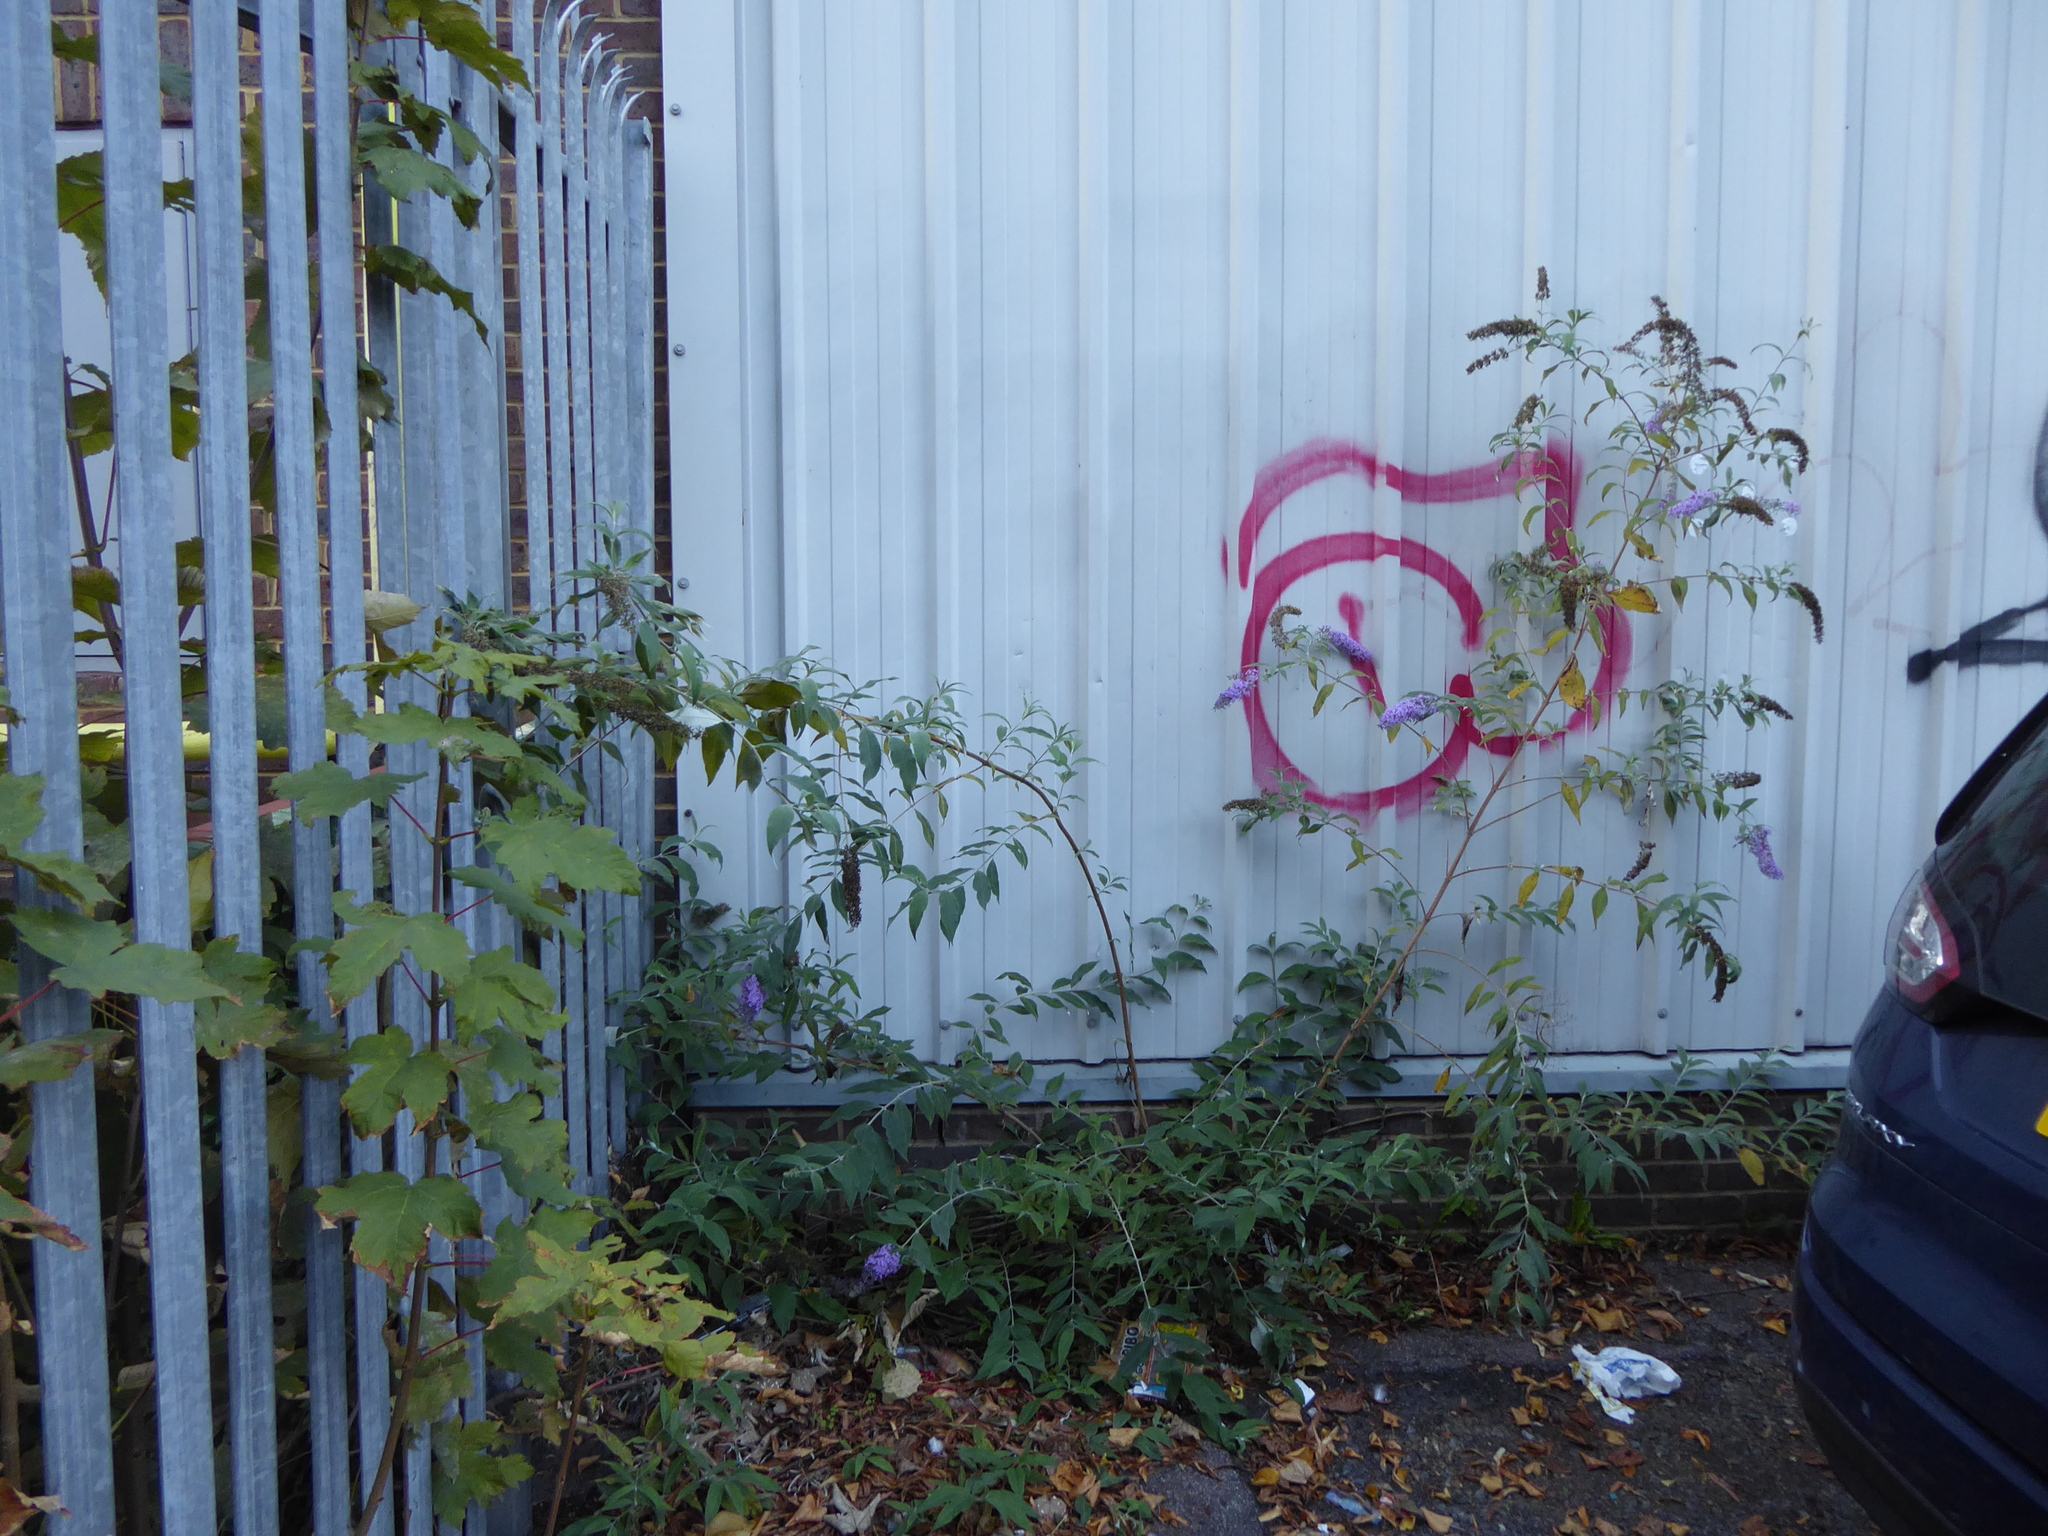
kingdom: Plantae
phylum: Tracheophyta
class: Magnoliopsida
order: Lamiales
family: Scrophulariaceae
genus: Buddleja
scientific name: Buddleja davidii
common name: Butterfly-bush
